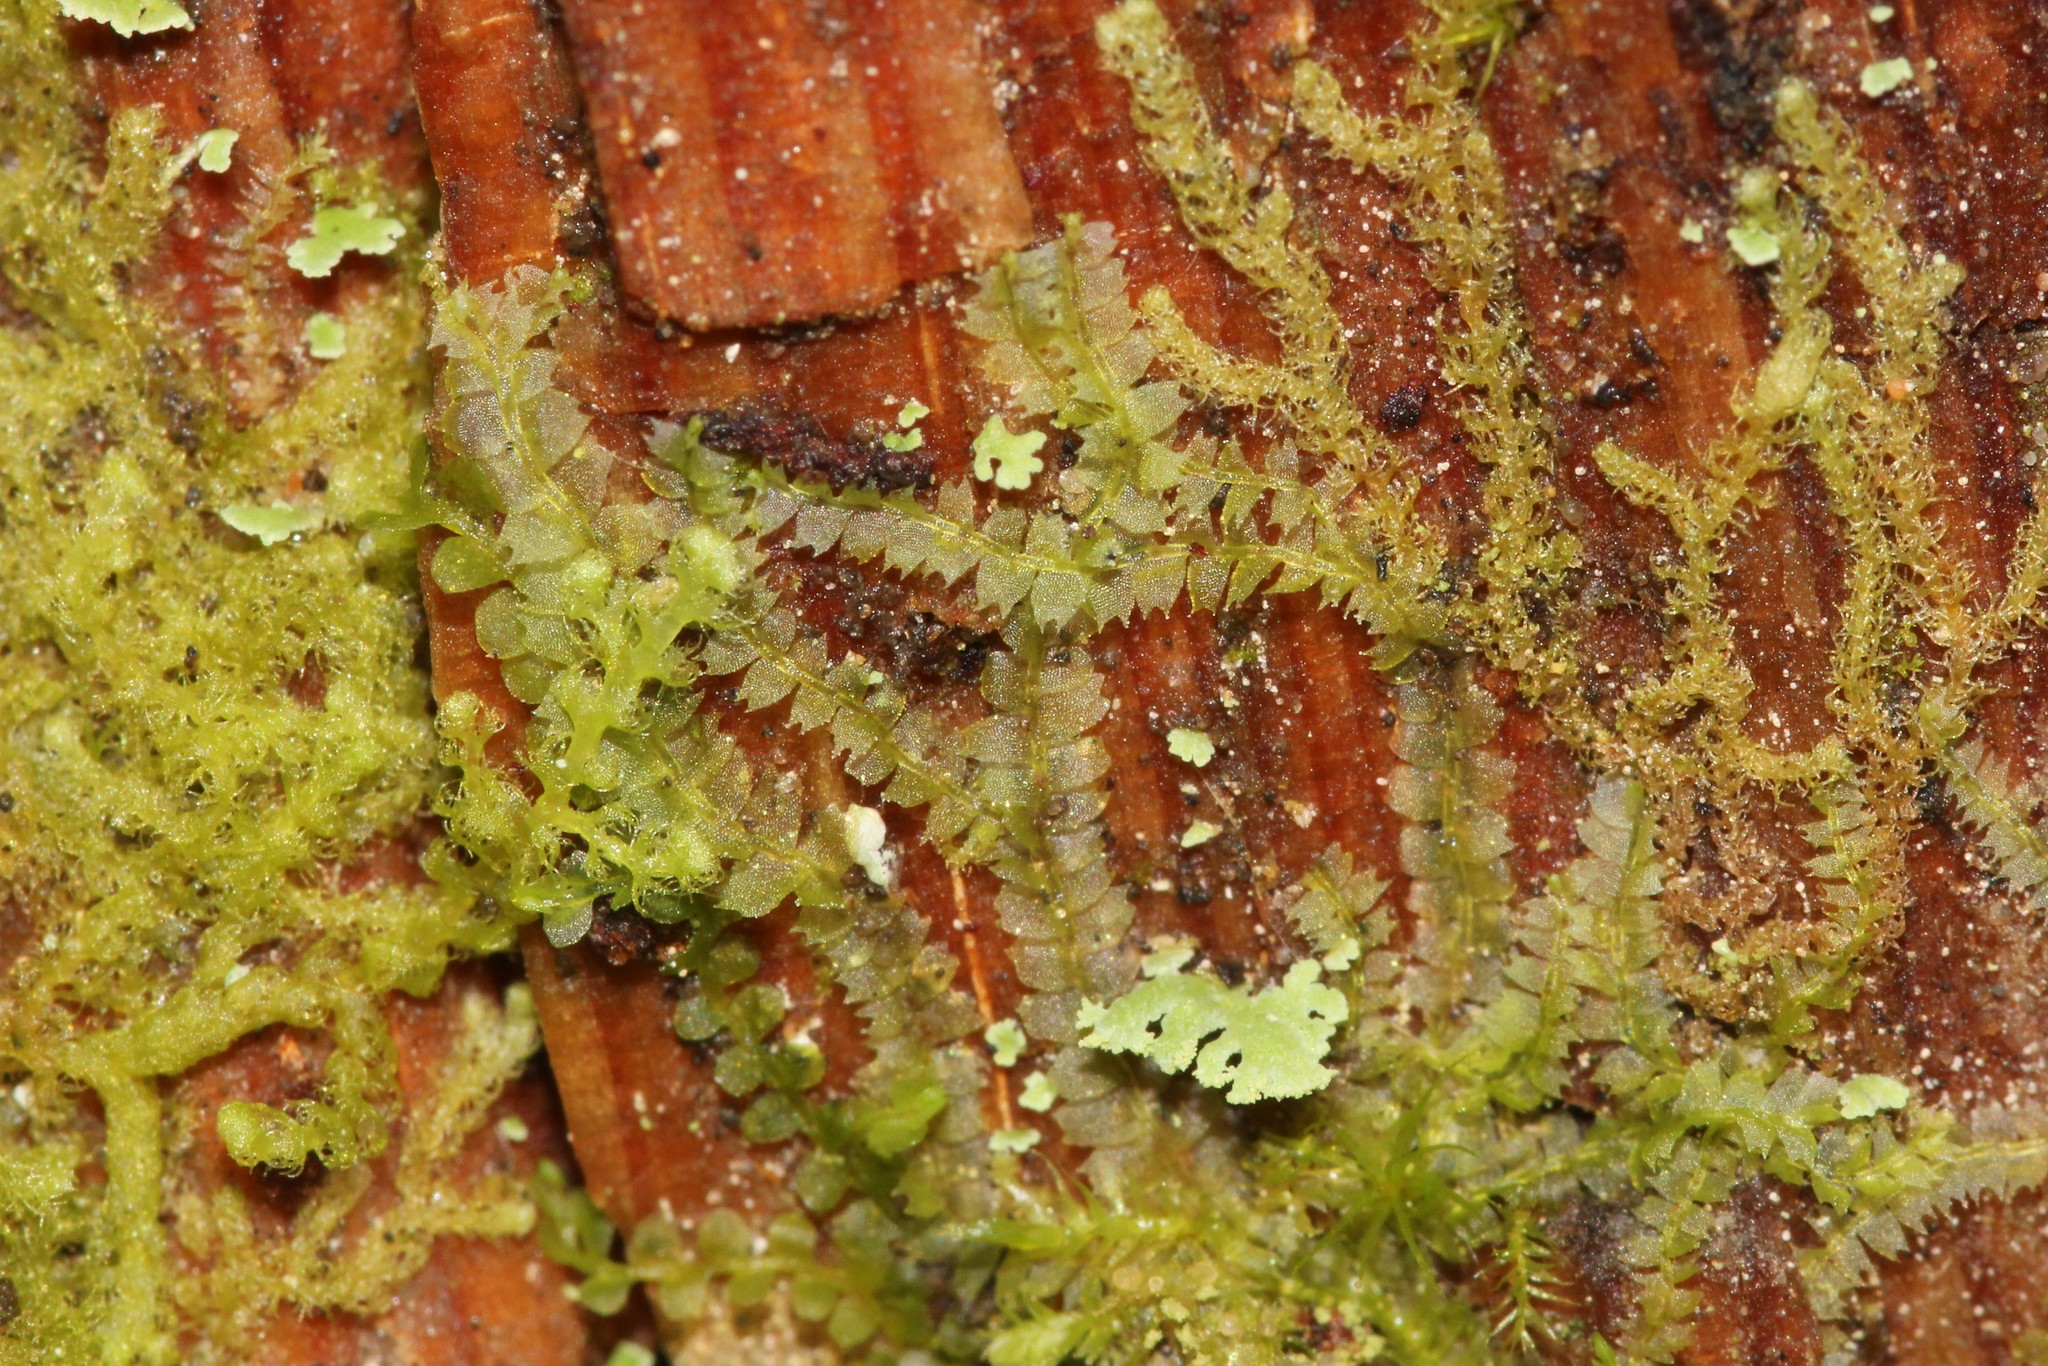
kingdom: Plantae
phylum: Marchantiophyta
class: Jungermanniopsida
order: Jungermanniales
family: Lophocoleaceae
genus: Lophocolea
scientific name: Lophocolea heterophylla
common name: Variable-leaved crestwort
